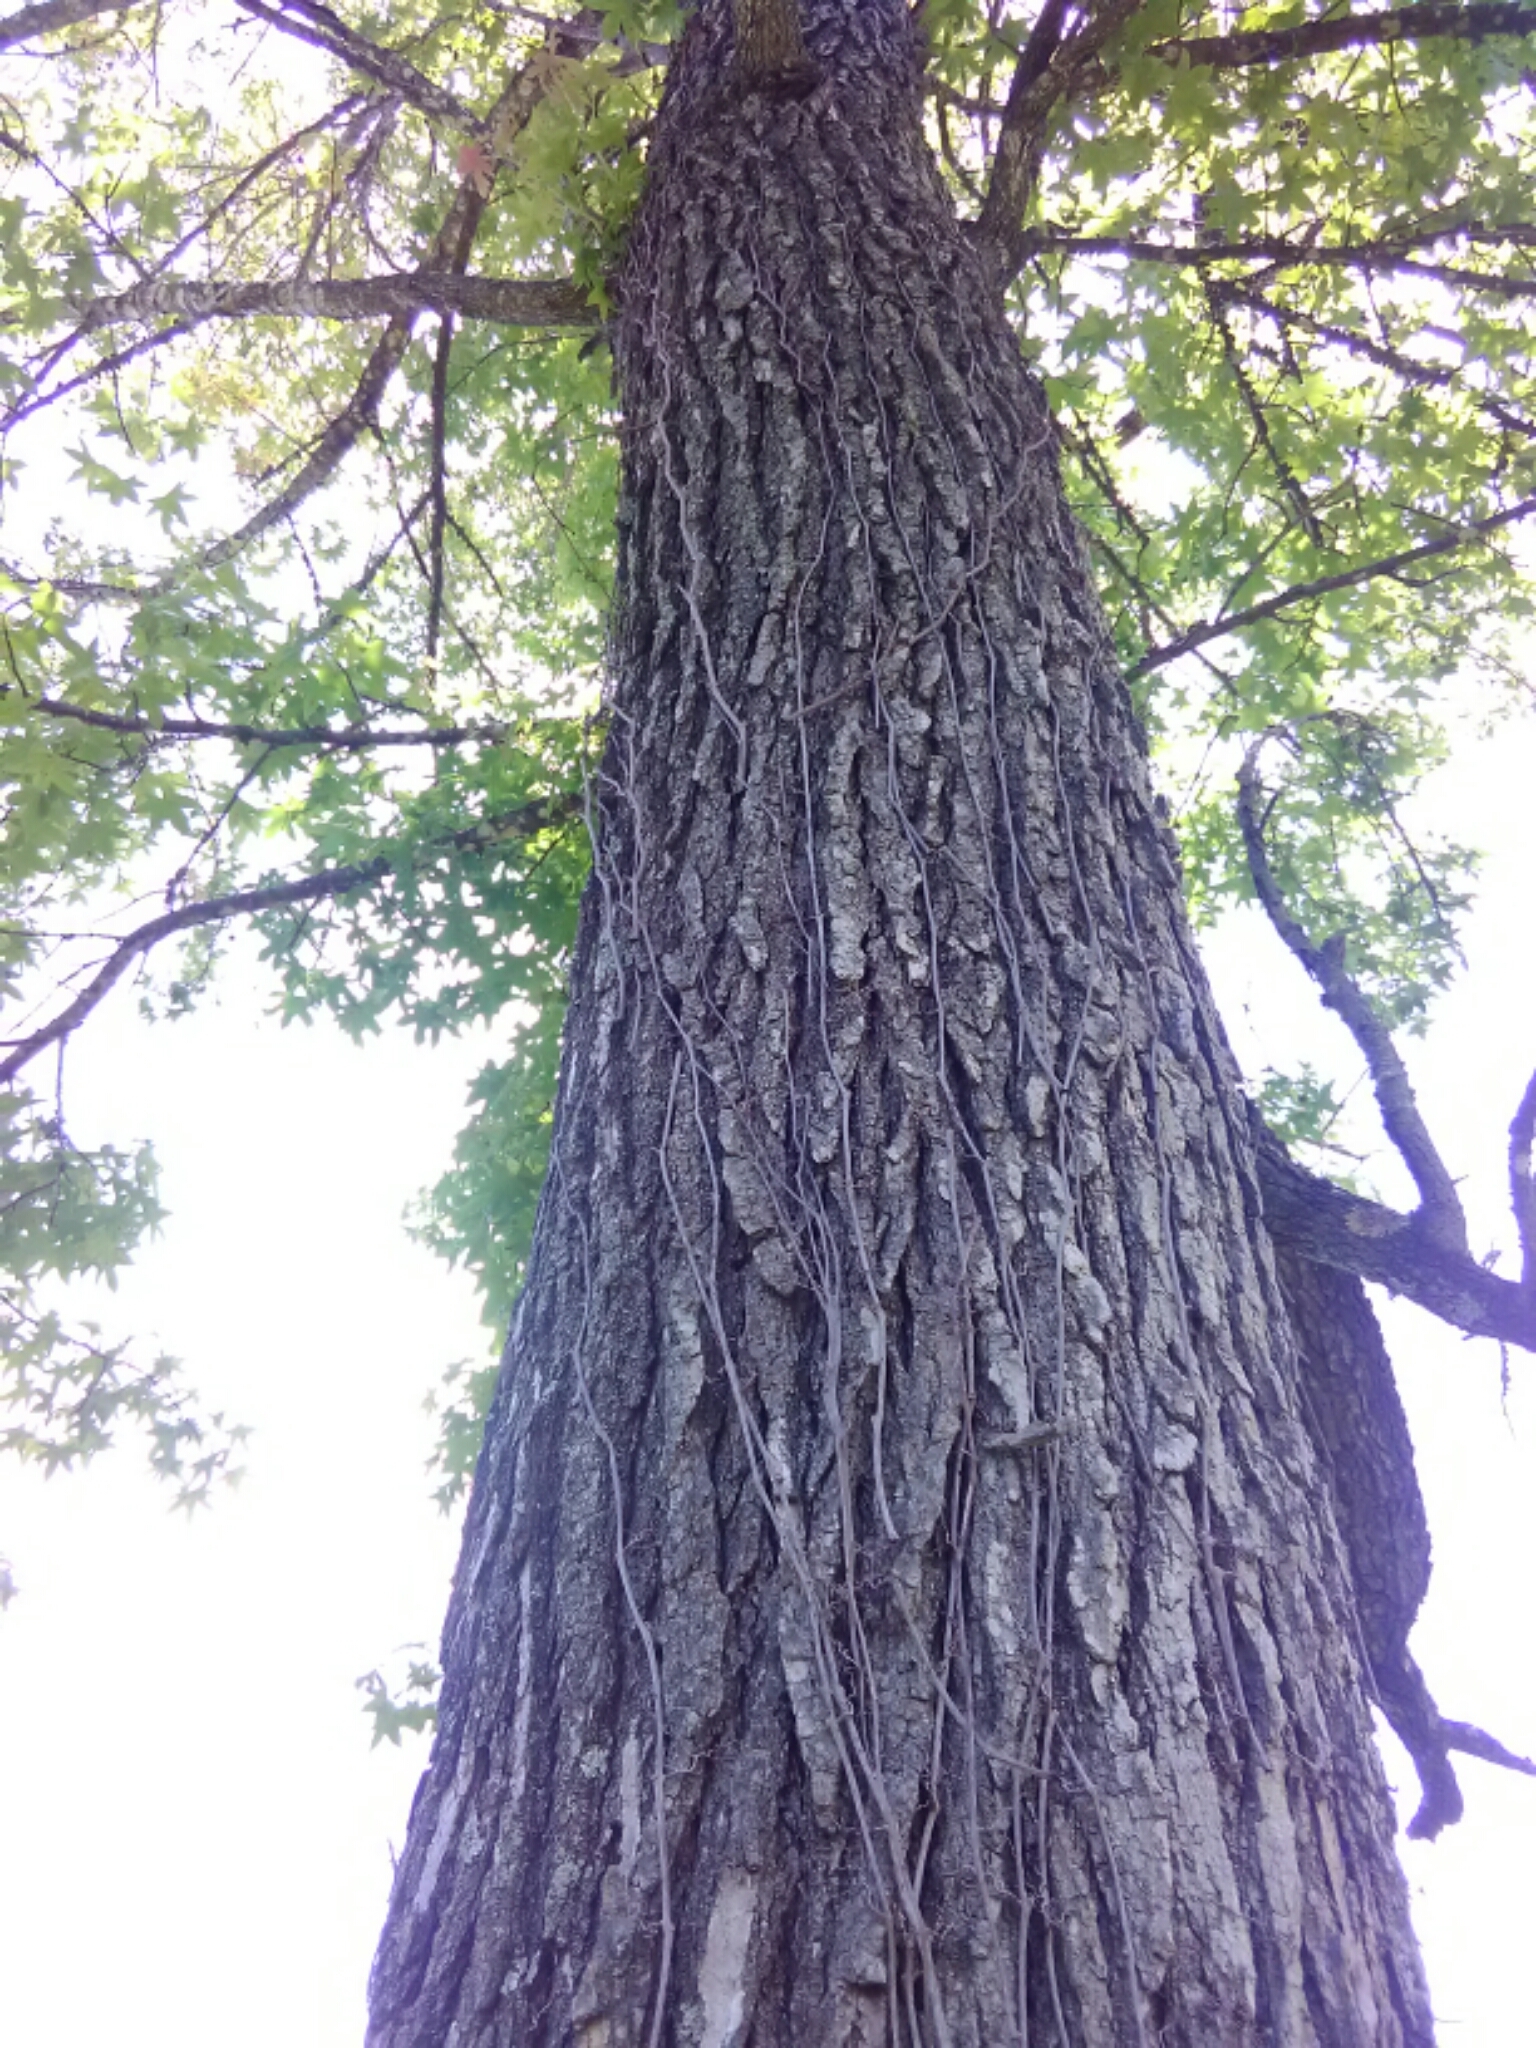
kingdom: Plantae
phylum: Tracheophyta
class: Magnoliopsida
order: Saxifragales
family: Altingiaceae
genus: Liquidambar
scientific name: Liquidambar styraciflua
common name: Sweet gum
